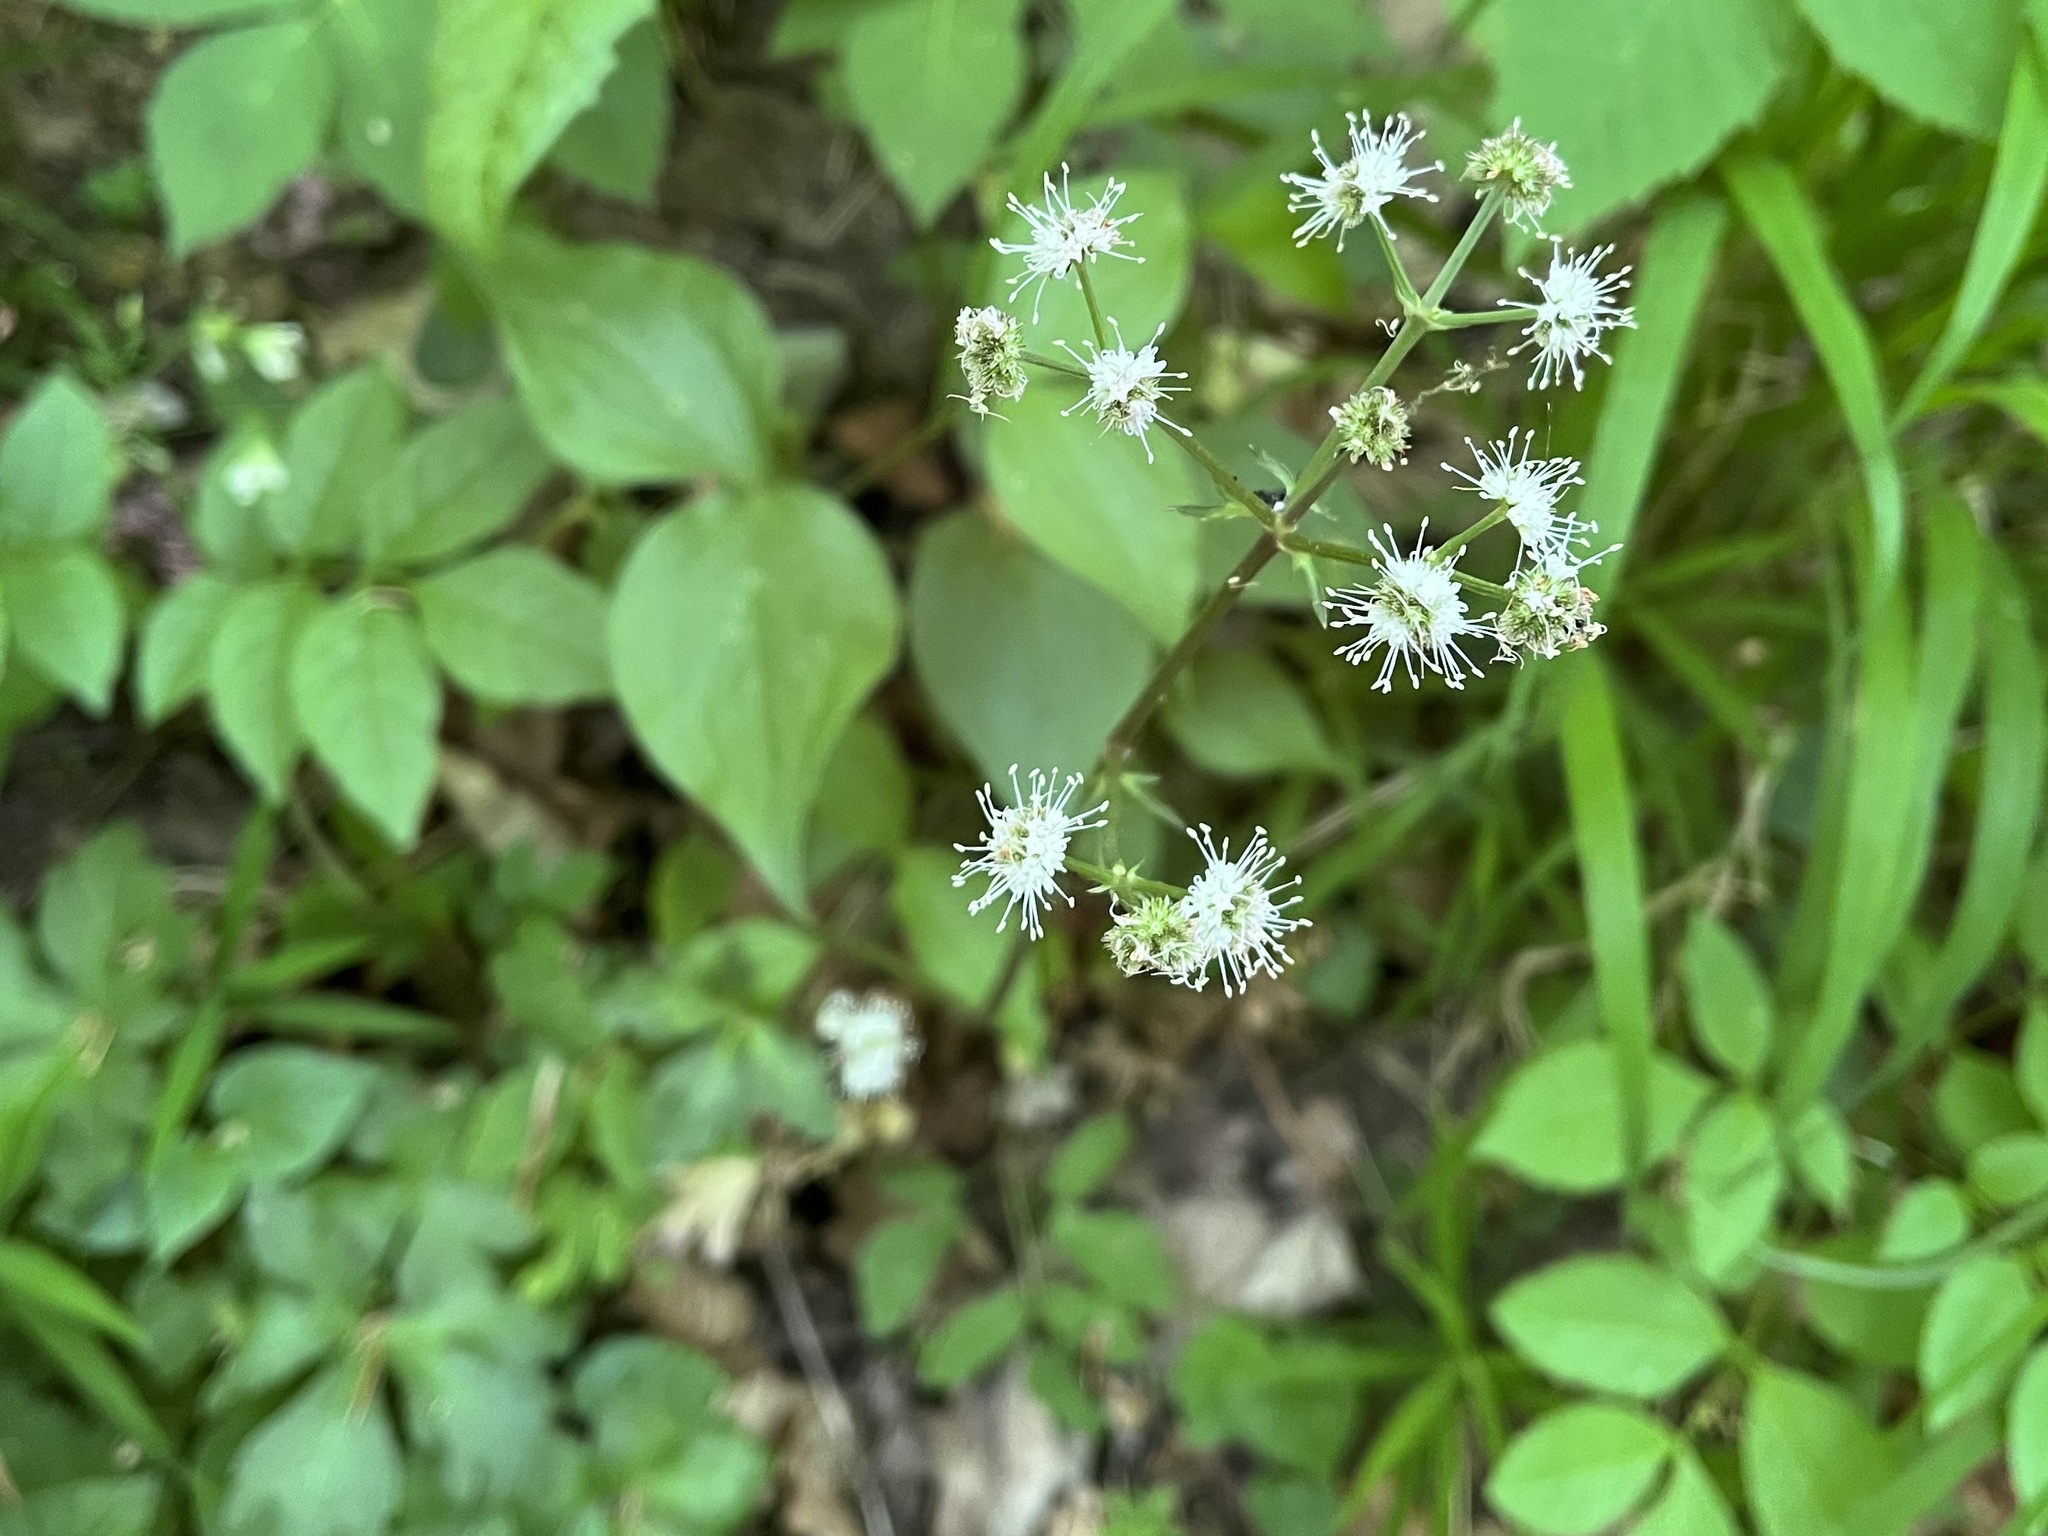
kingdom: Plantae
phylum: Tracheophyta
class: Magnoliopsida
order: Apiales
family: Apiaceae
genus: Sanicula
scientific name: Sanicula europaea
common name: Sanicle
